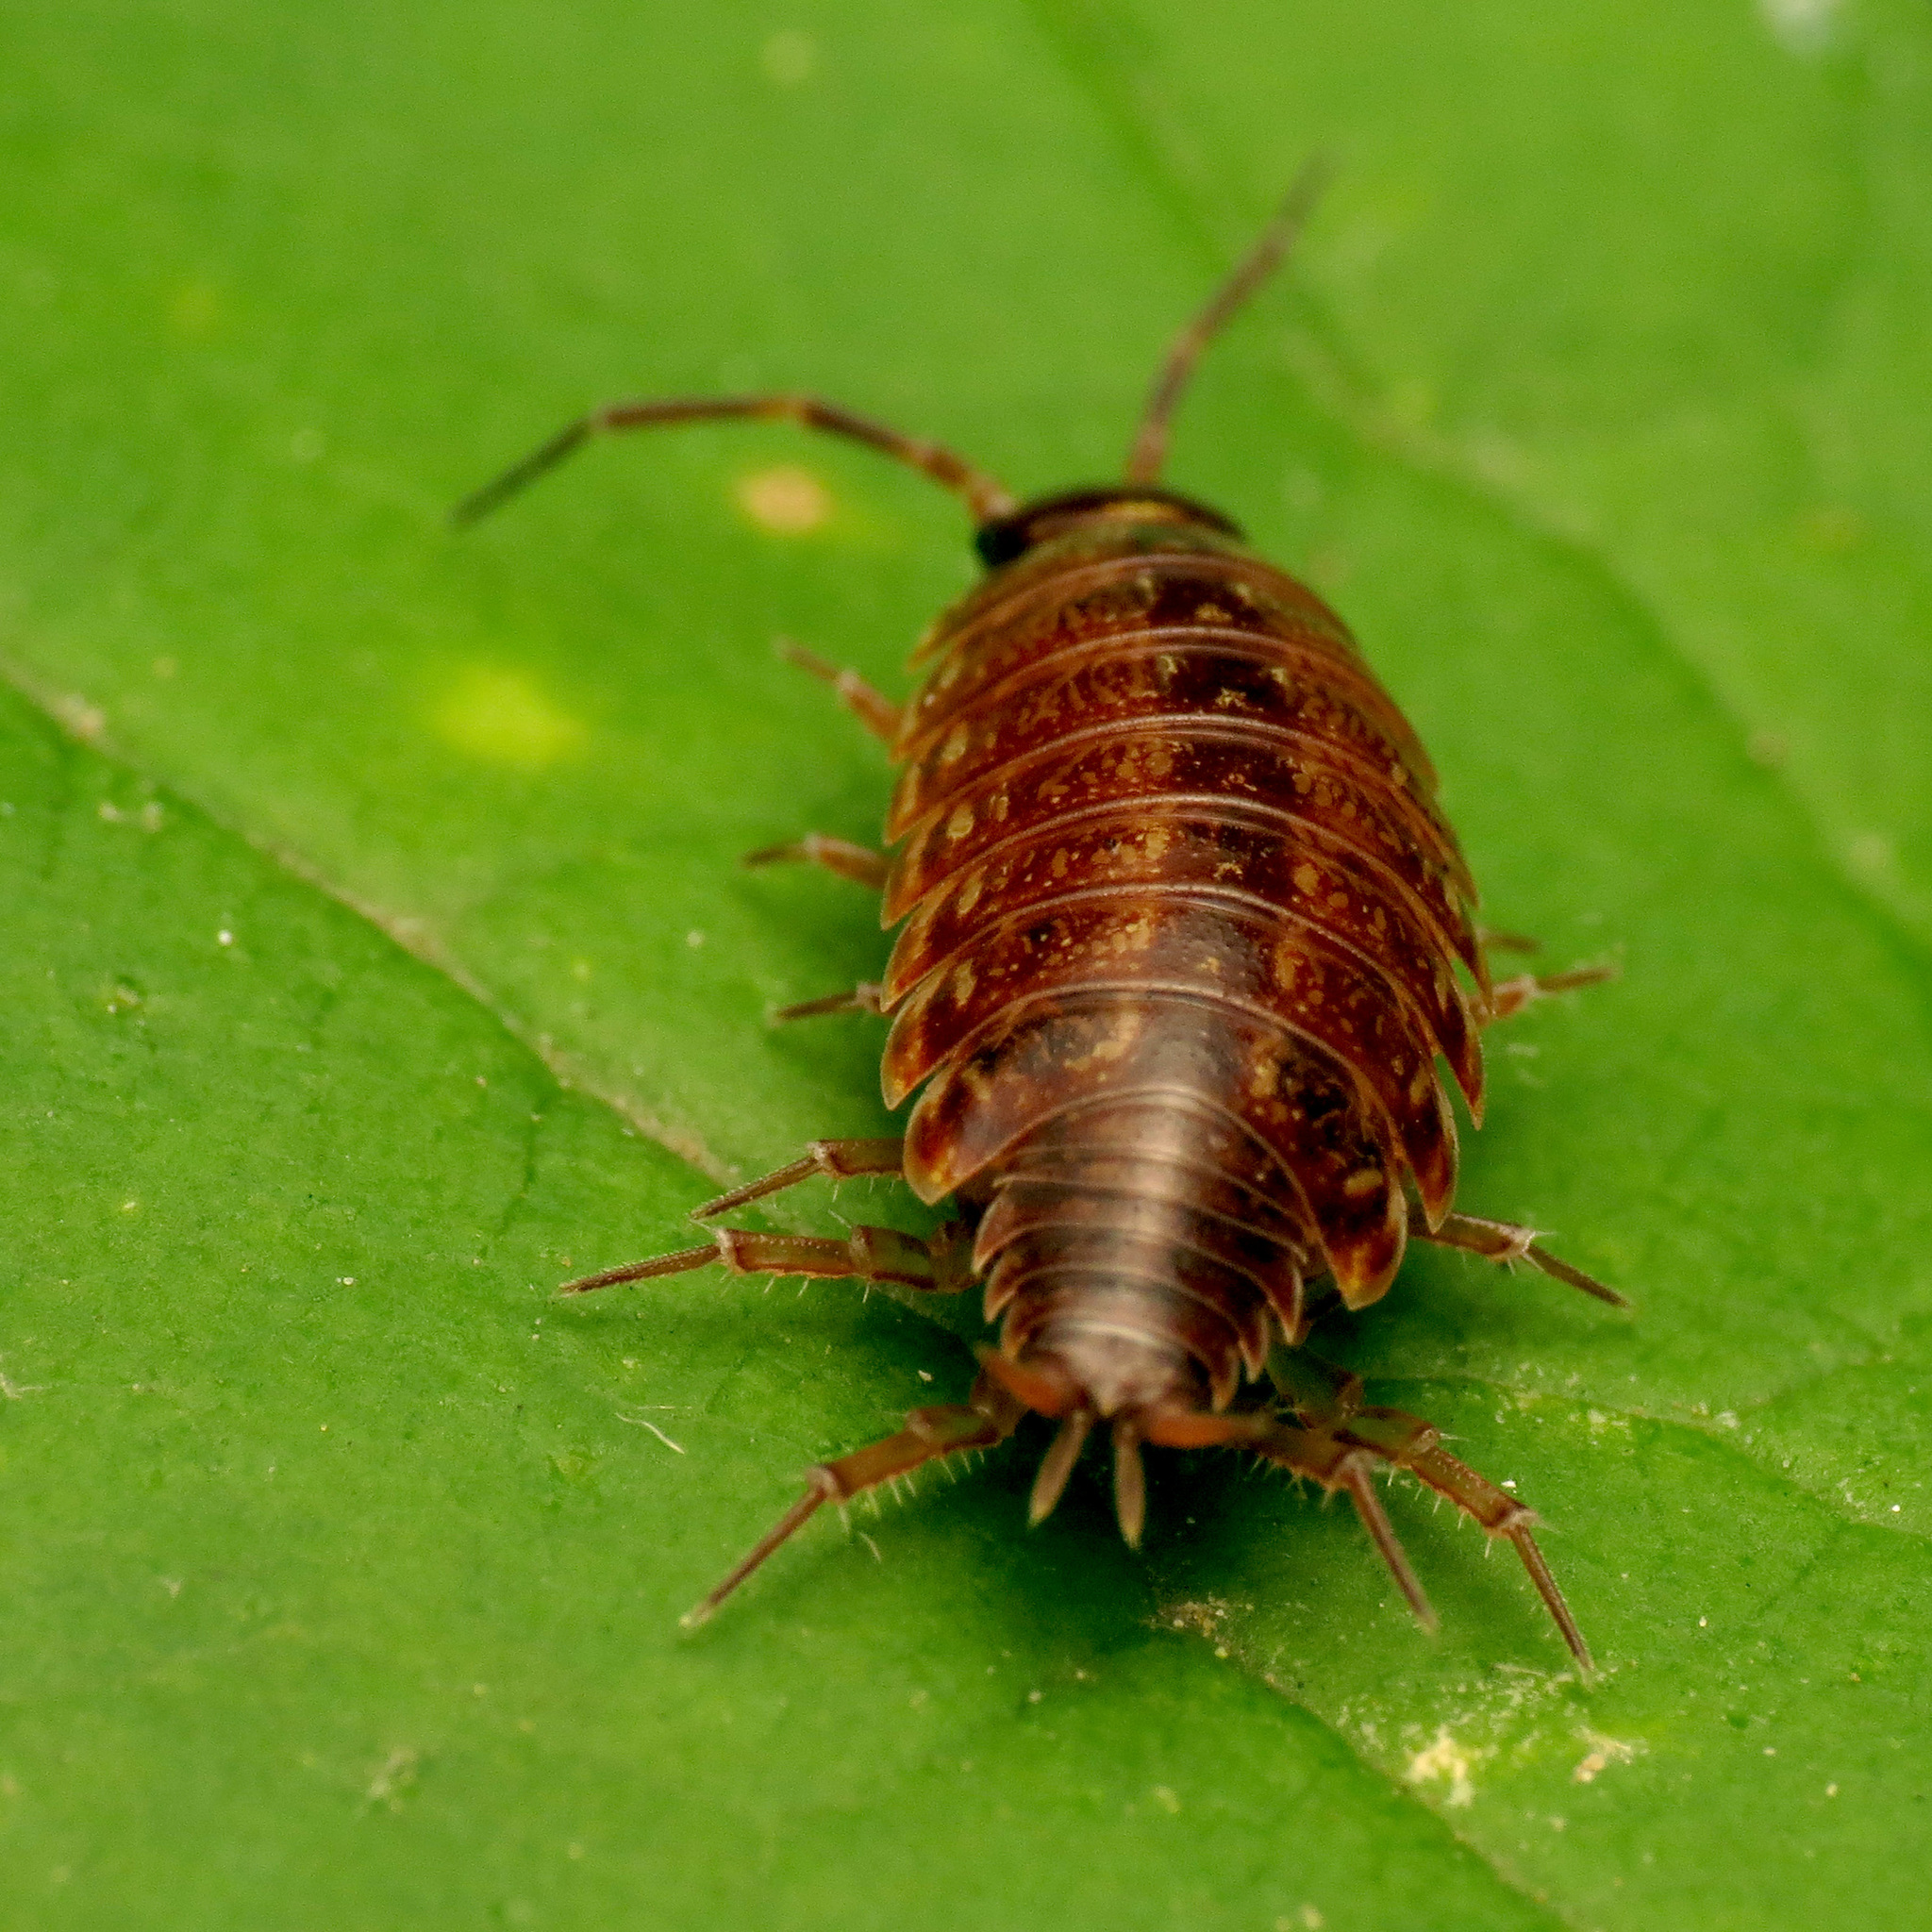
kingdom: Animalia
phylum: Arthropoda
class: Malacostraca
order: Isopoda
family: Philosciidae
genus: Philoscia
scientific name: Philoscia muscorum
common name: Common striped woodlouse
